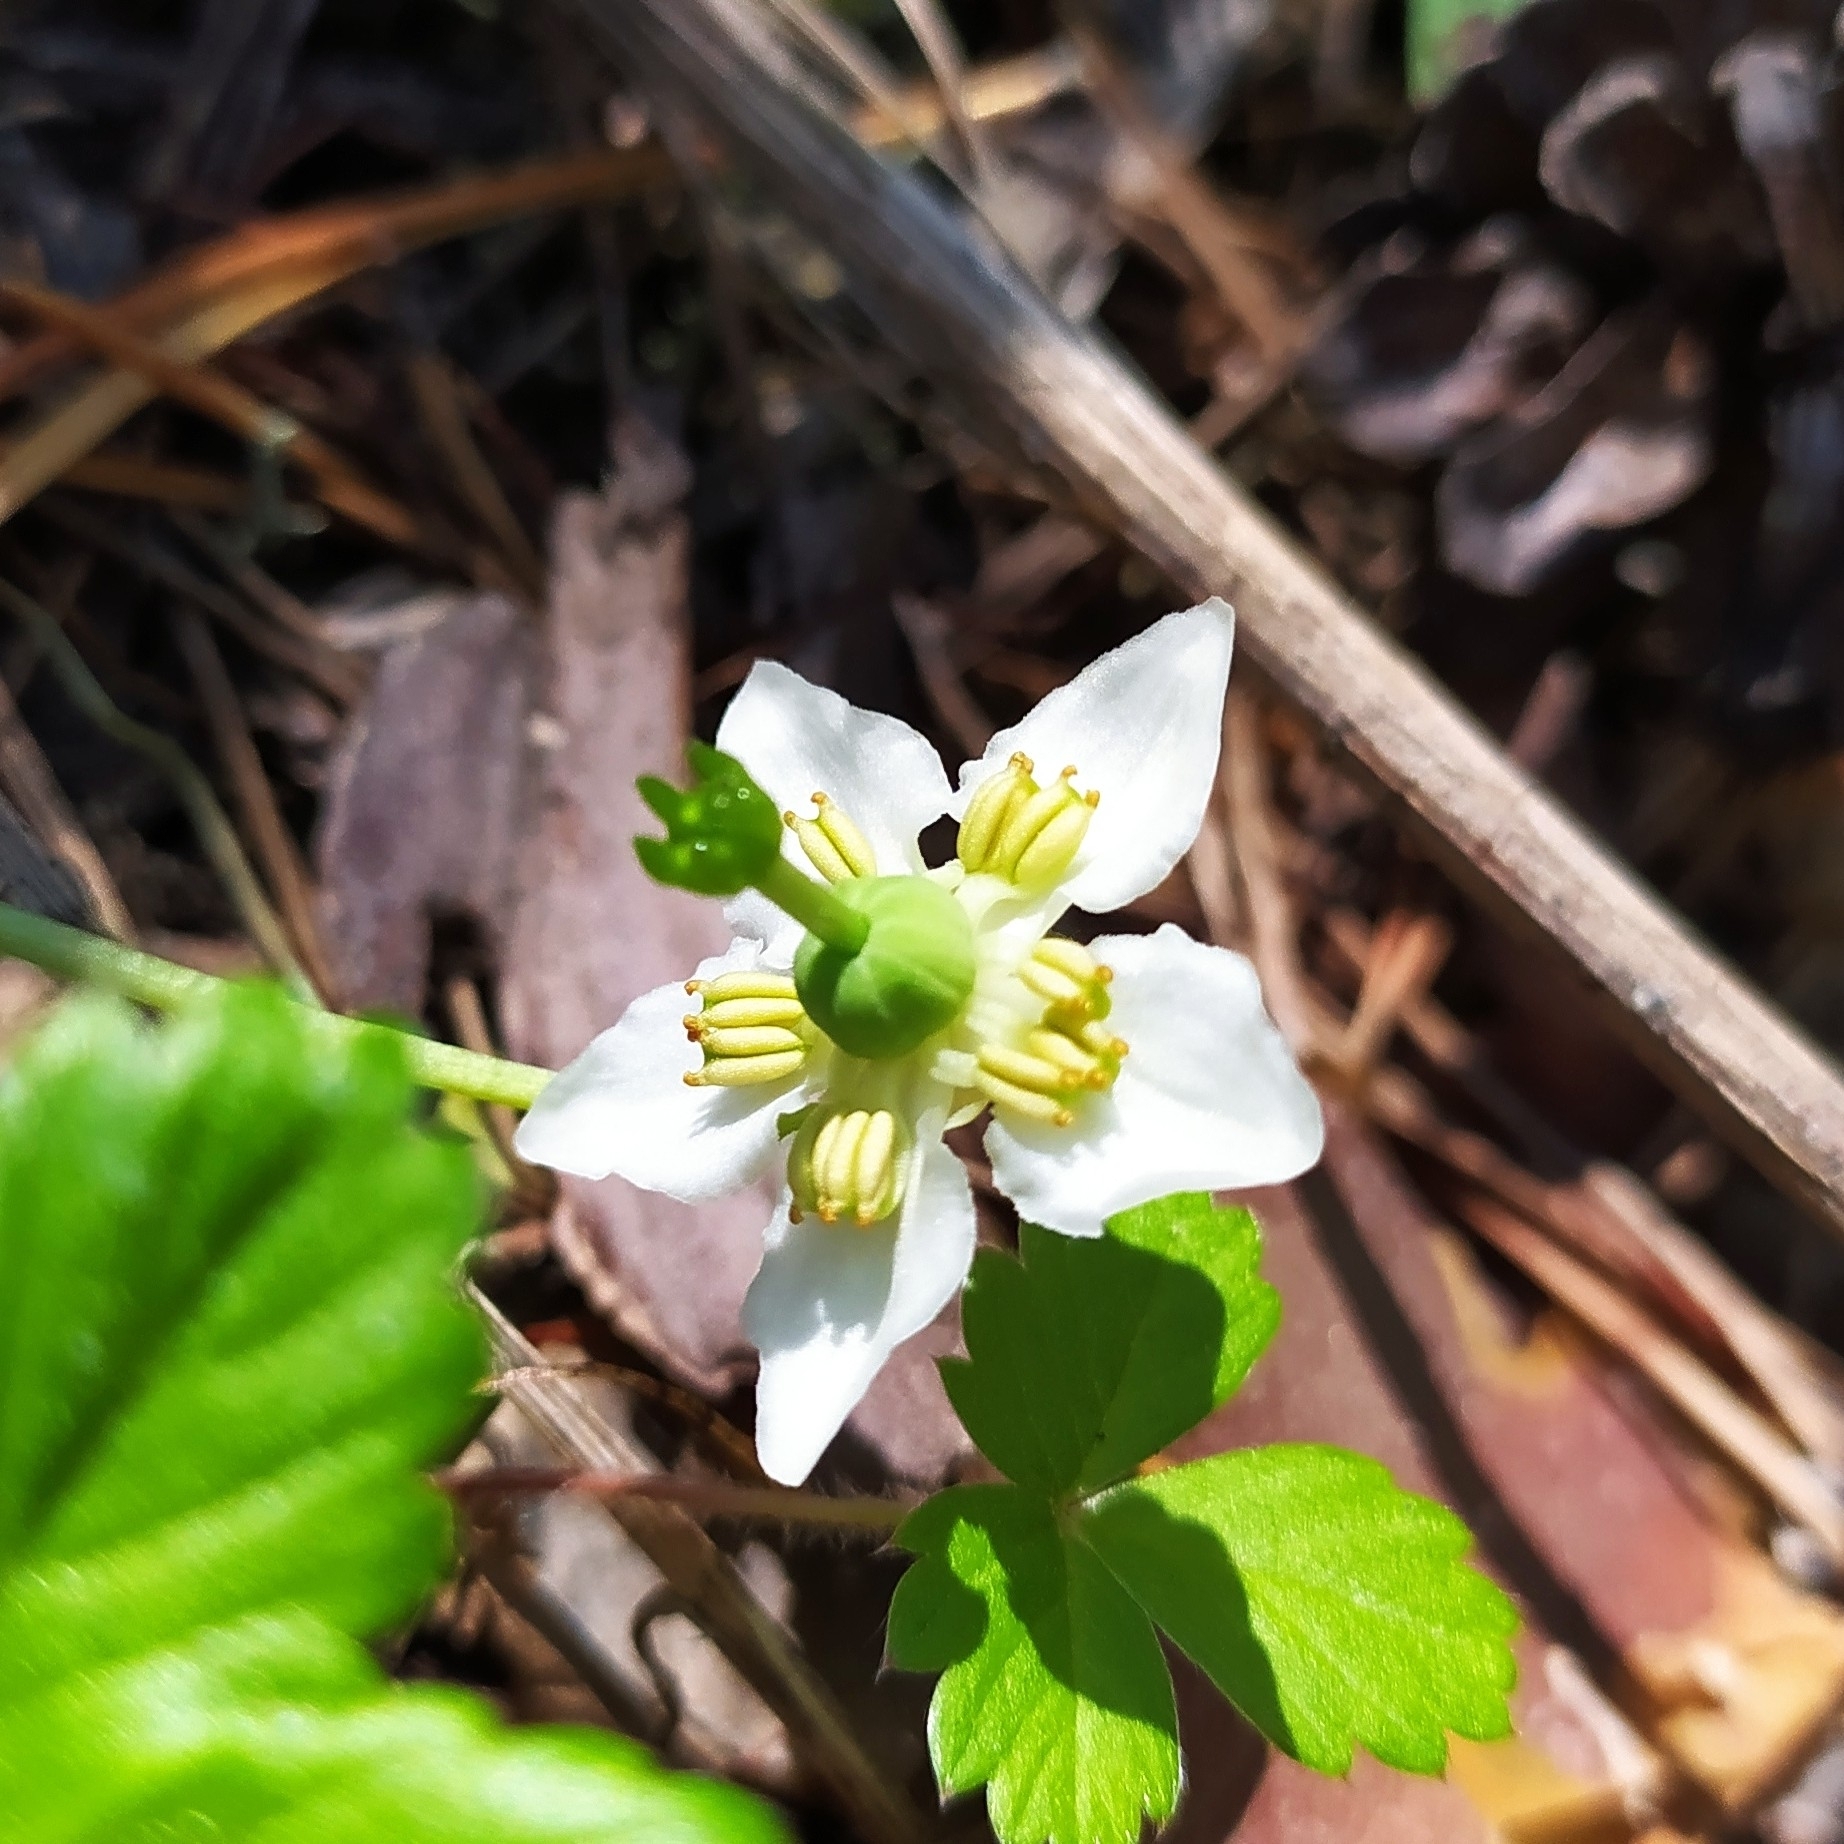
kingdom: Plantae
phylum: Tracheophyta
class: Magnoliopsida
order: Ericales
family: Ericaceae
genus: Moneses
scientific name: Moneses uniflora
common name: One-flowered wintergreen
